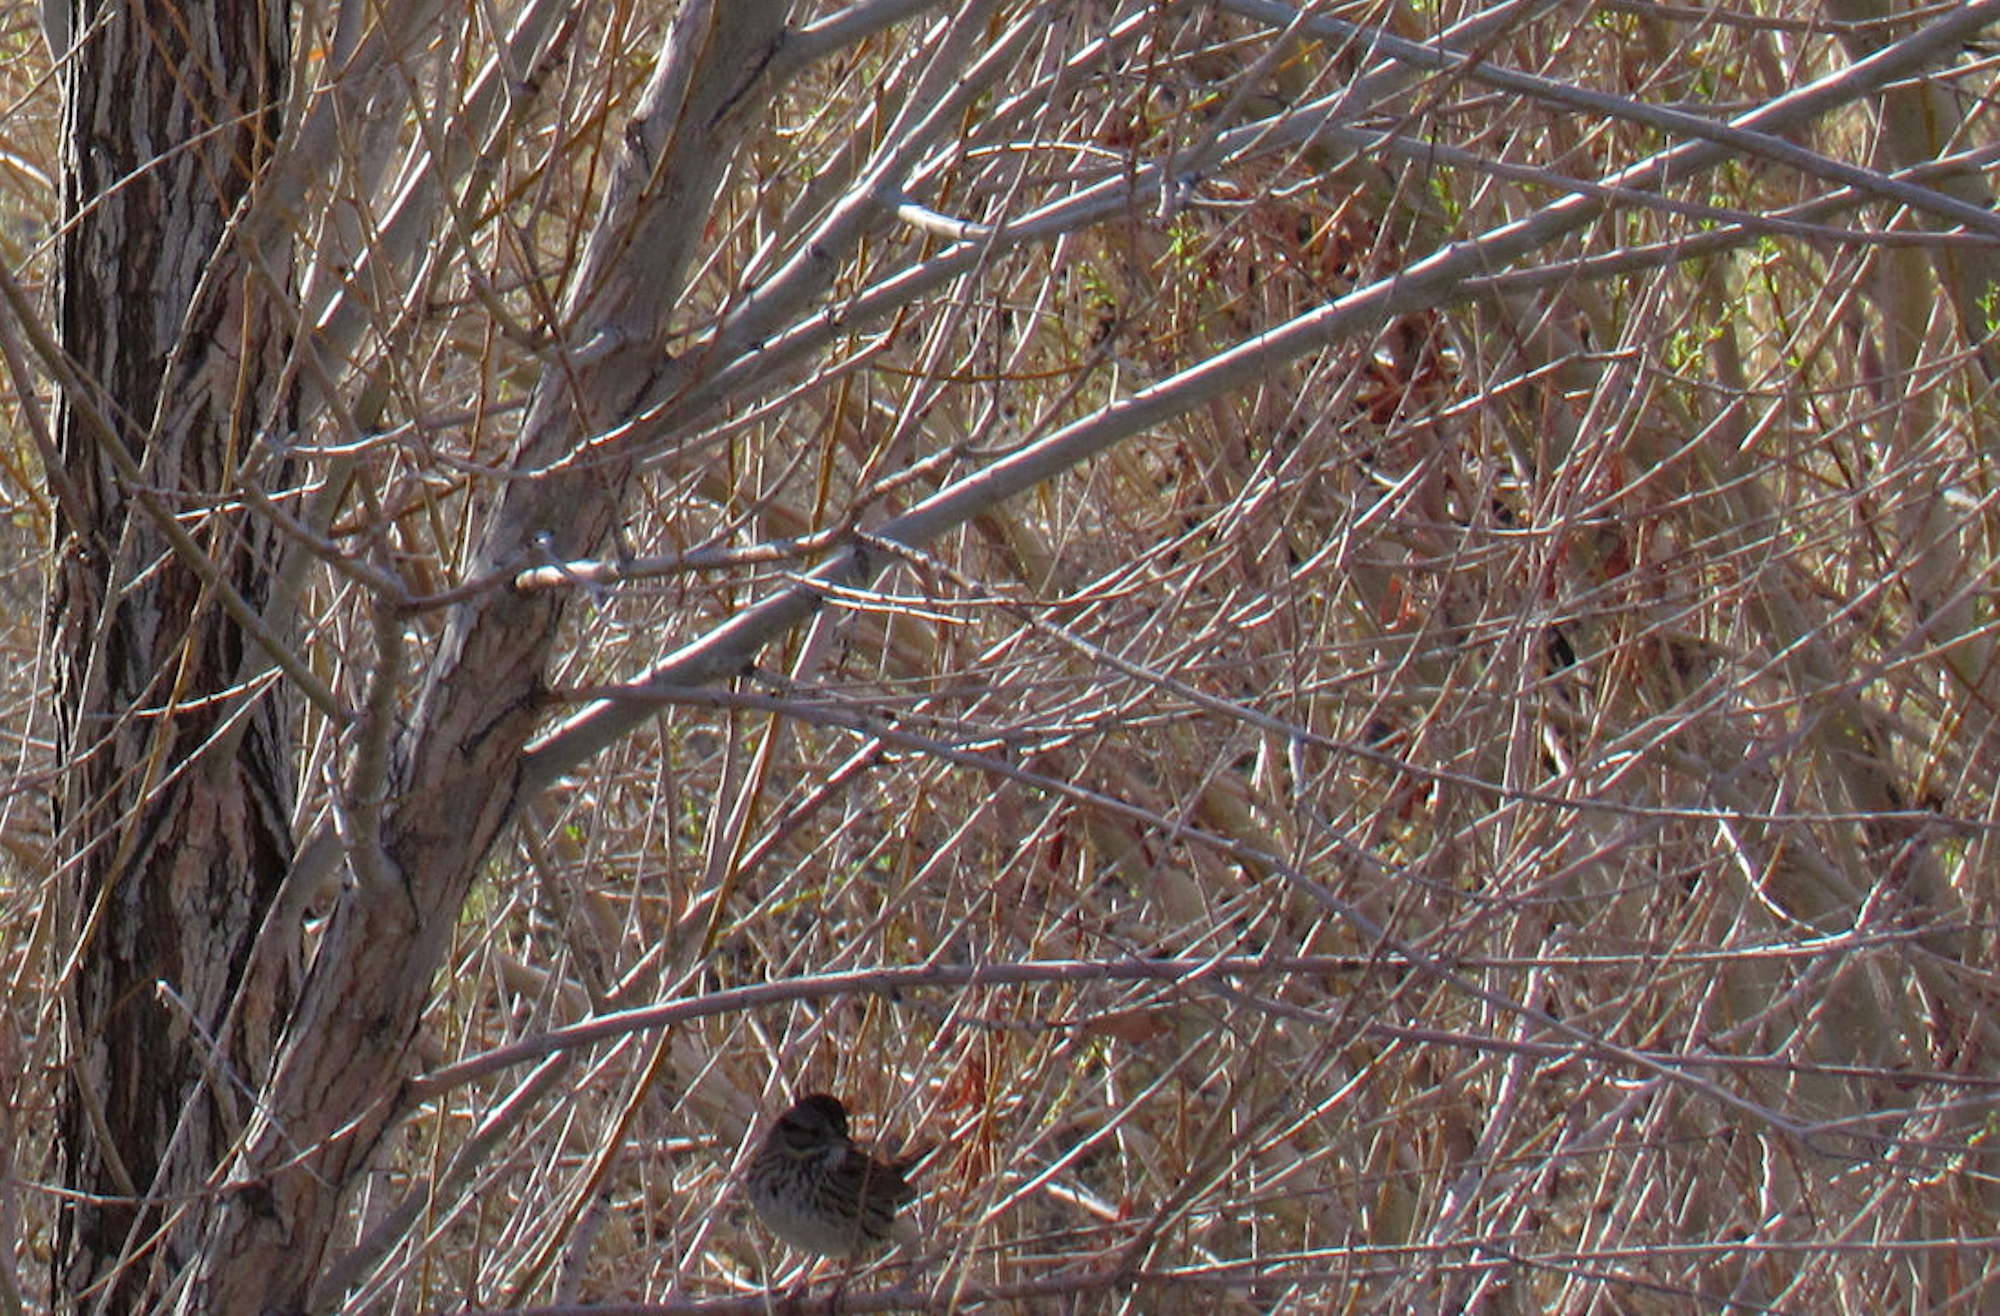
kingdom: Animalia
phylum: Chordata
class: Aves
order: Passeriformes
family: Passerellidae
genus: Melospiza
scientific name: Melospiza melodia
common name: Song sparrow
